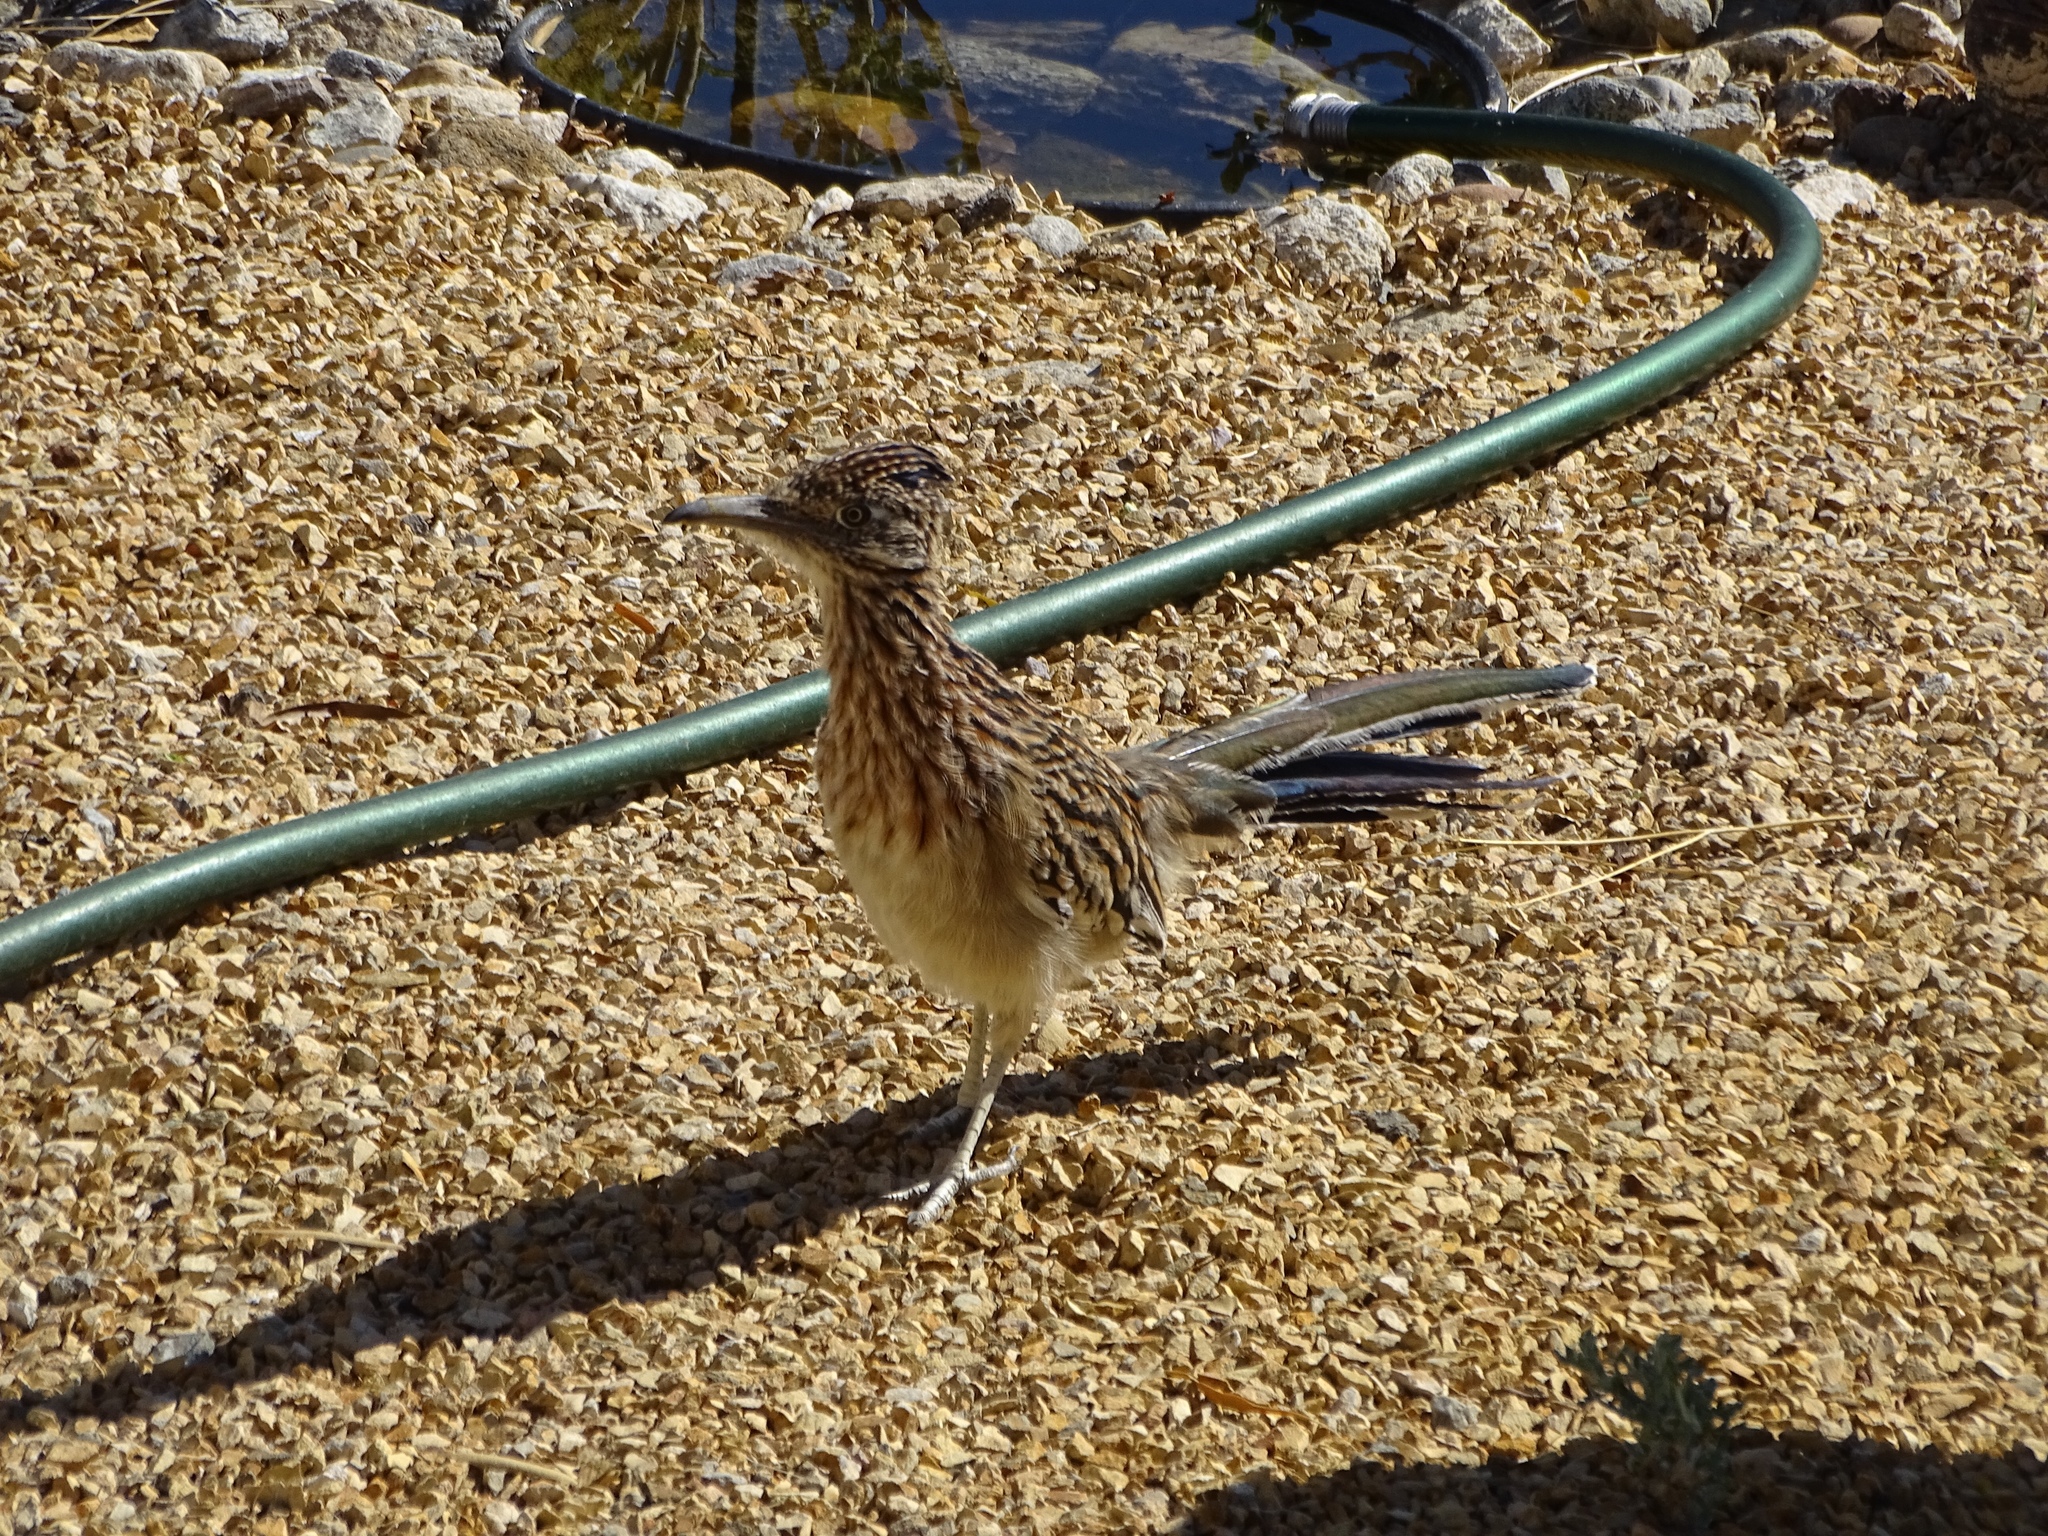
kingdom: Animalia
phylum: Chordata
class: Aves
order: Cuculiformes
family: Cuculidae
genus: Geococcyx
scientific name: Geococcyx californianus
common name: Greater roadrunner
